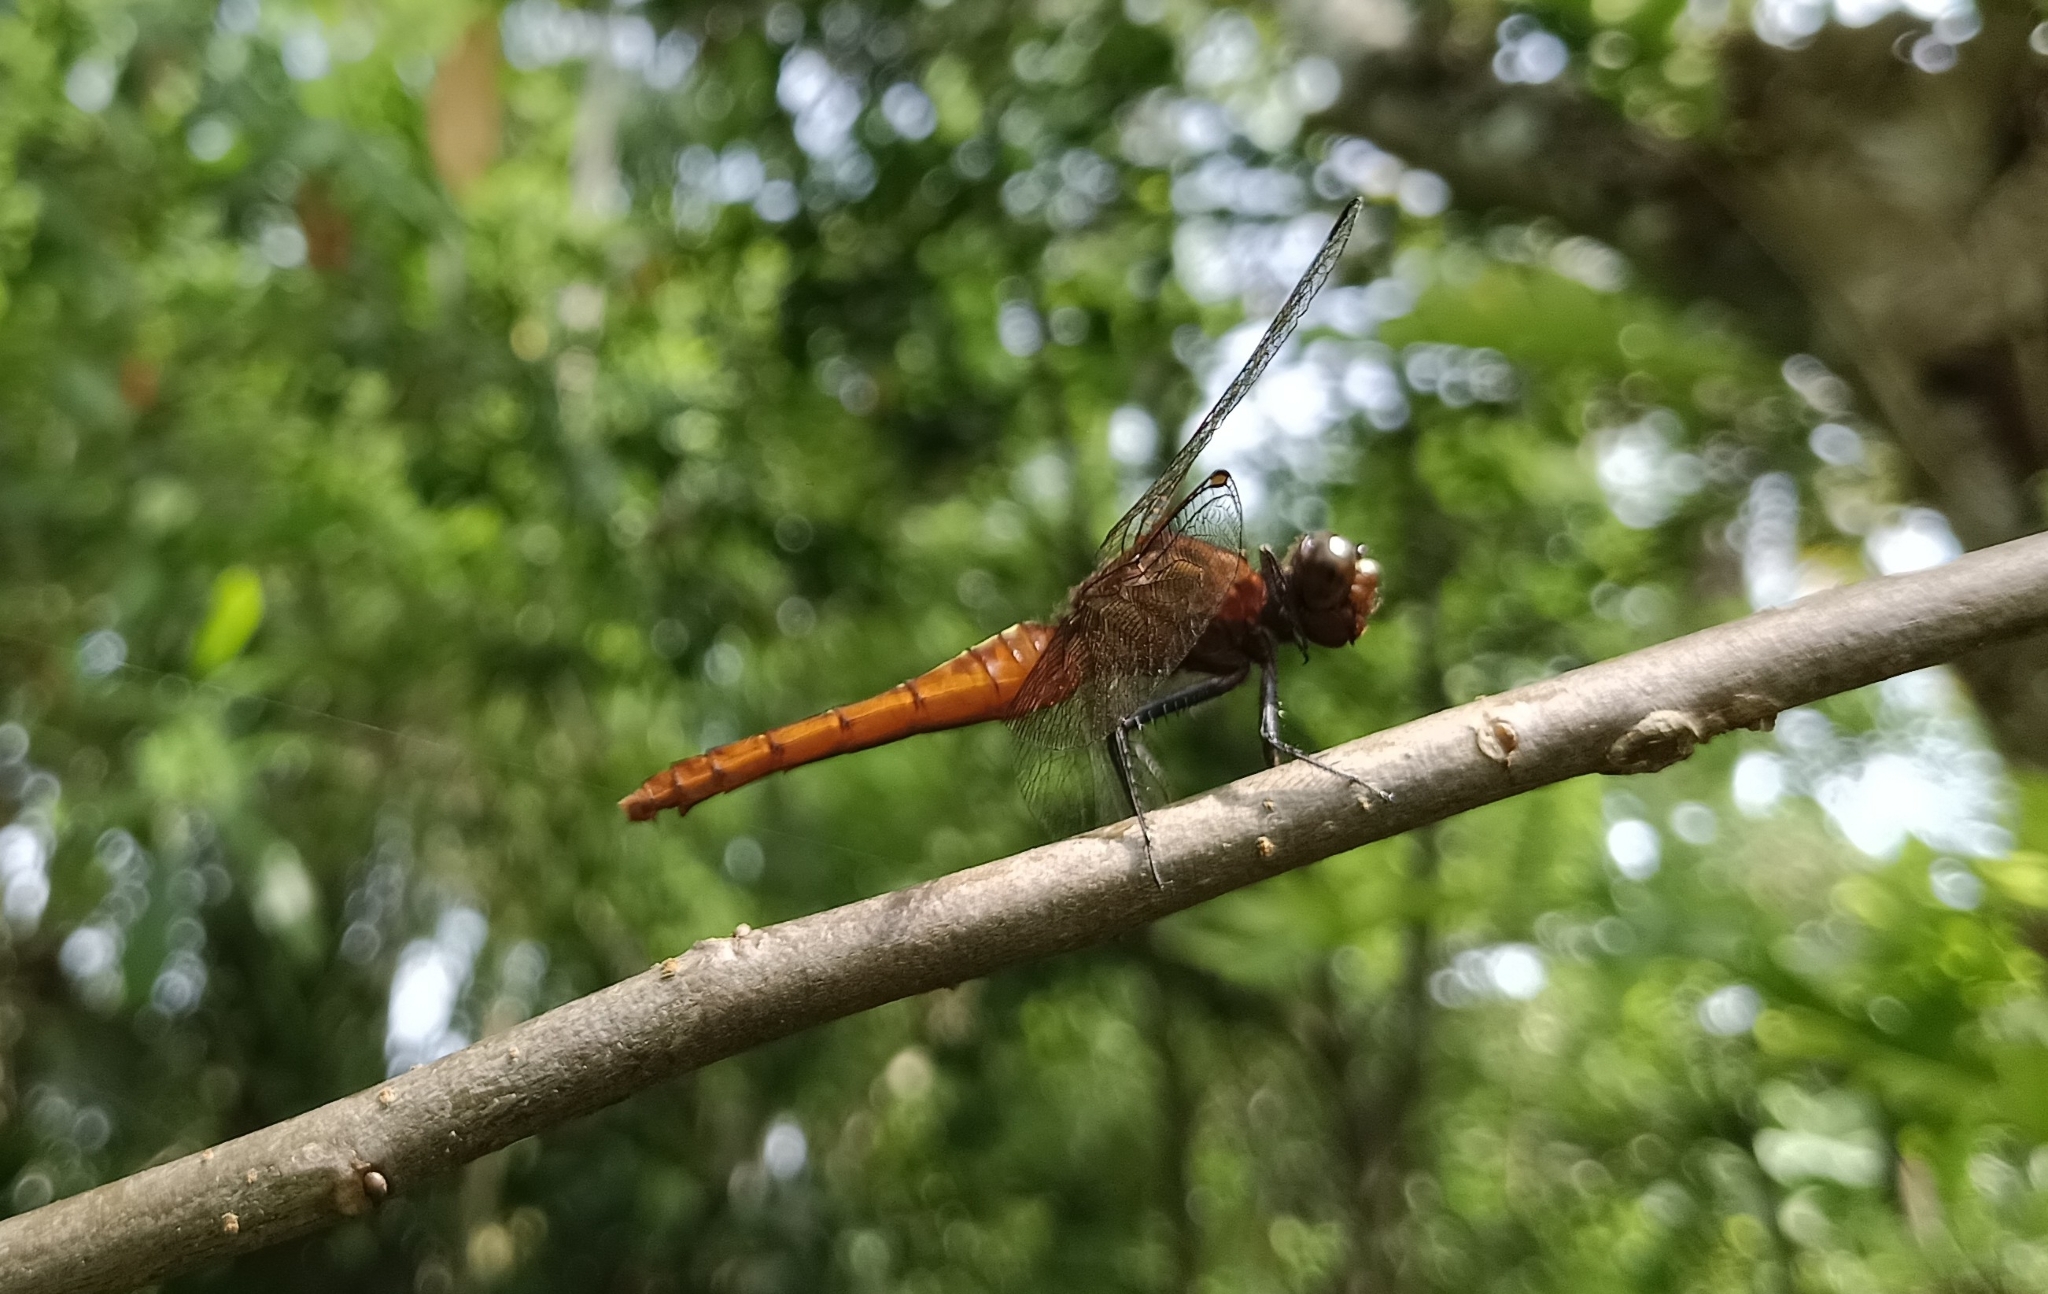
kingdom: Animalia
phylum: Arthropoda
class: Insecta
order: Odonata
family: Libellulidae
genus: Rhodothemis
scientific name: Rhodothemis rufa
